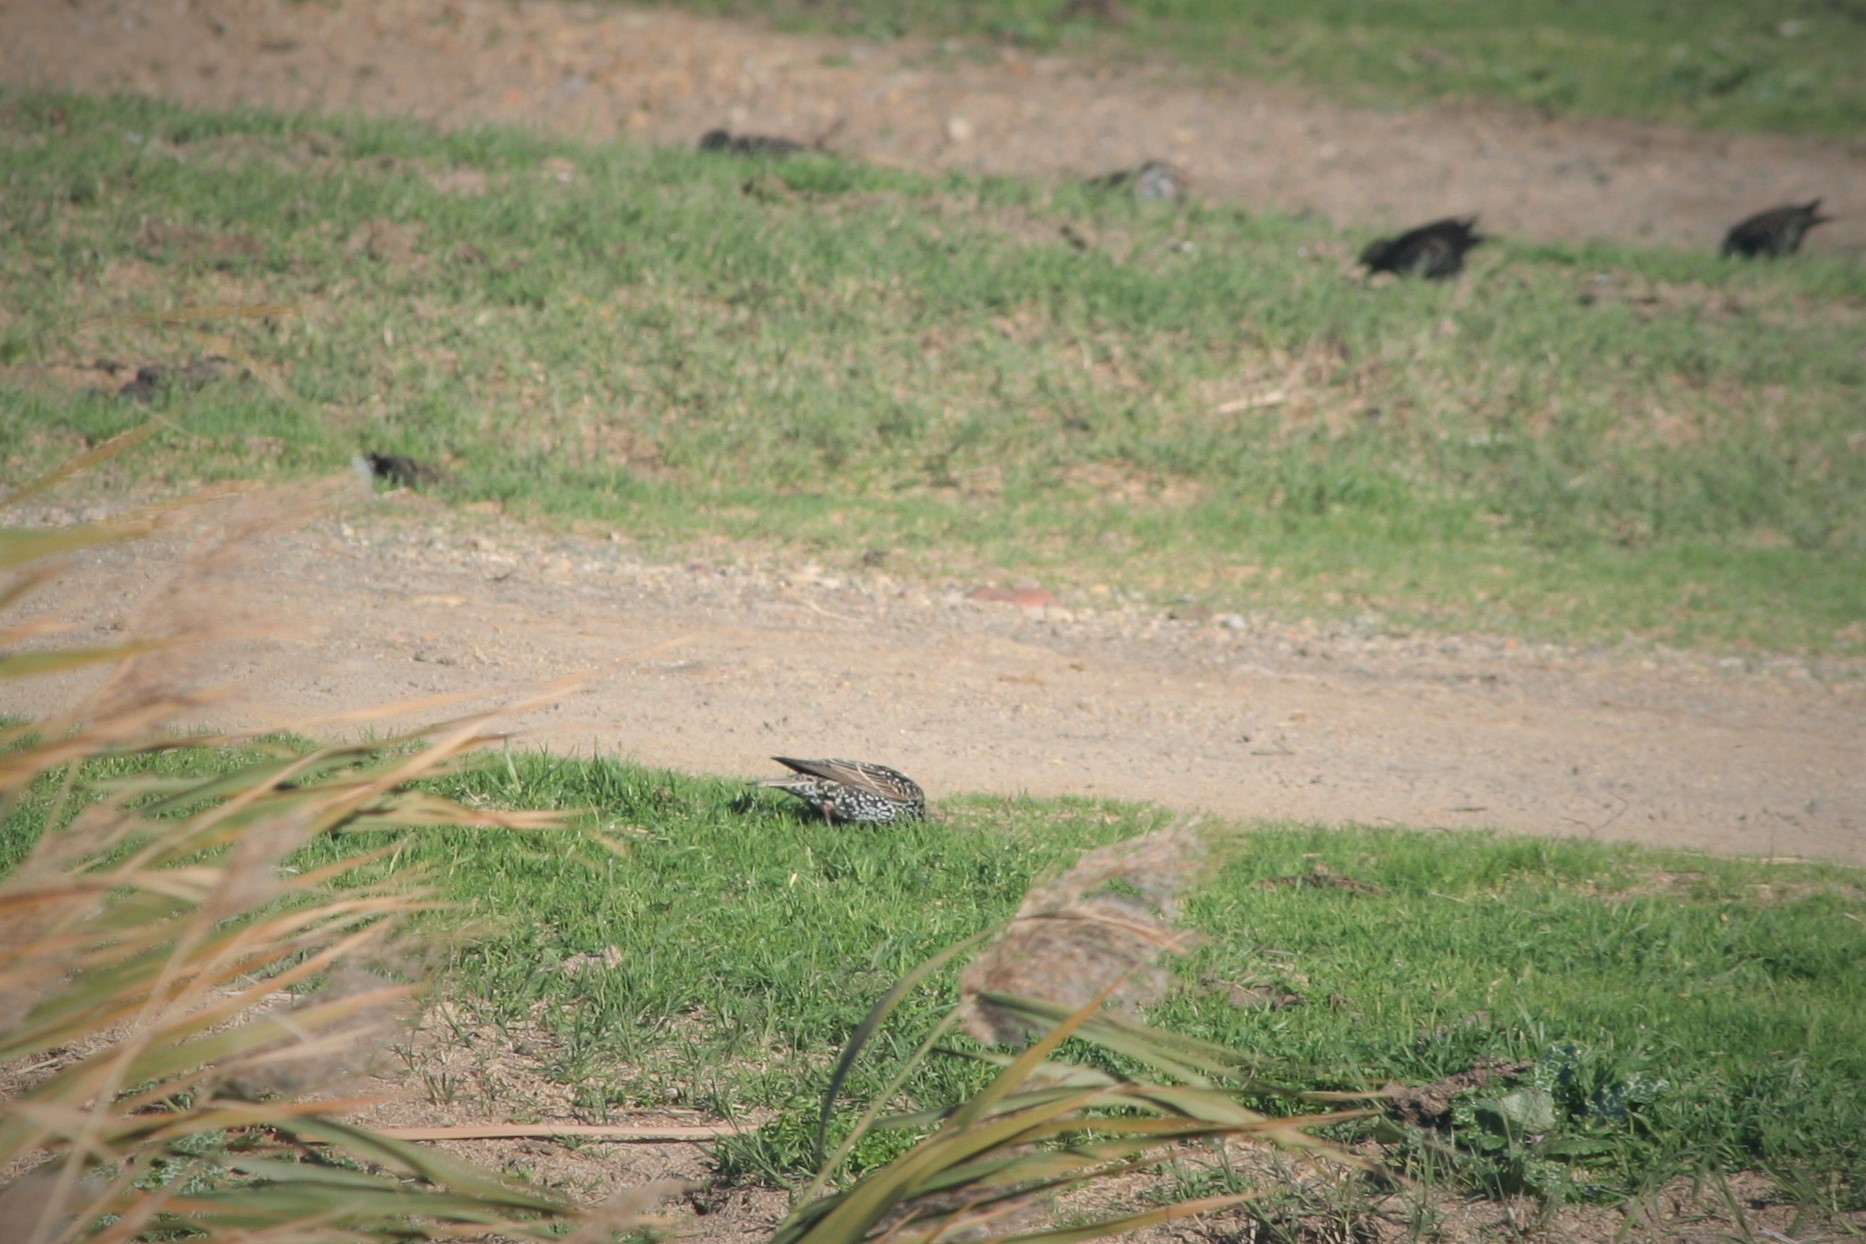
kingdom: Animalia
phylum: Chordata
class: Aves
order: Passeriformes
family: Sturnidae
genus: Sturnus
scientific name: Sturnus vulgaris
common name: Common starling
